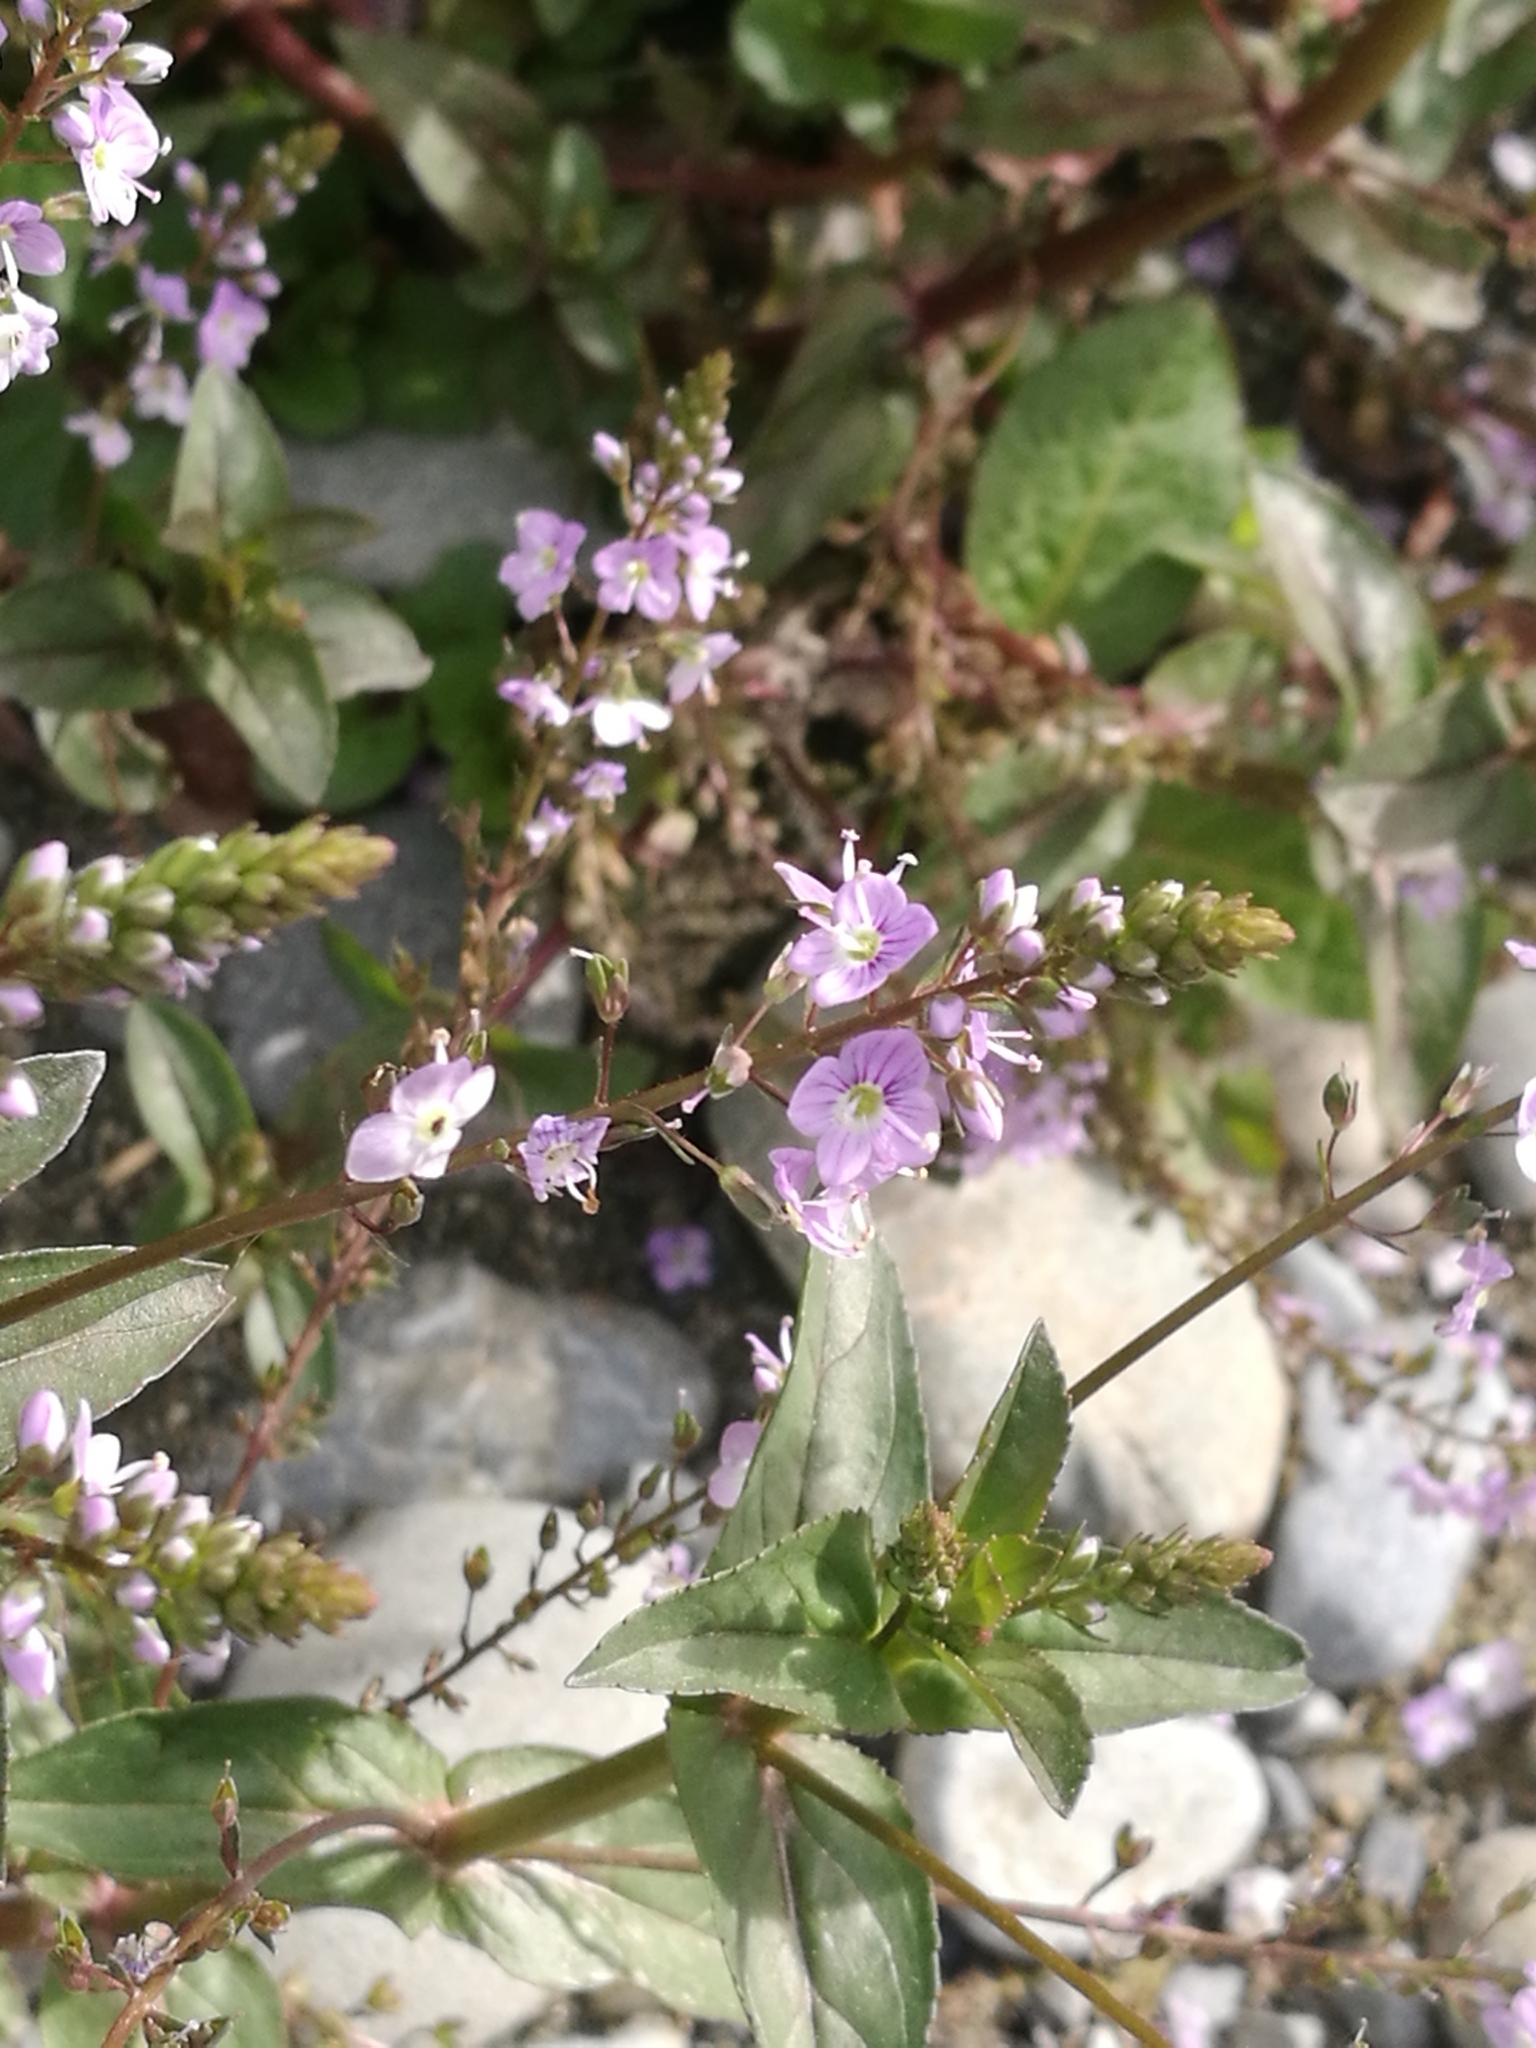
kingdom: Plantae
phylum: Tracheophyta
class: Magnoliopsida
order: Lamiales
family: Plantaginaceae
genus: Veronica
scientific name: Veronica anagallis-aquatica
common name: Water speedwell
